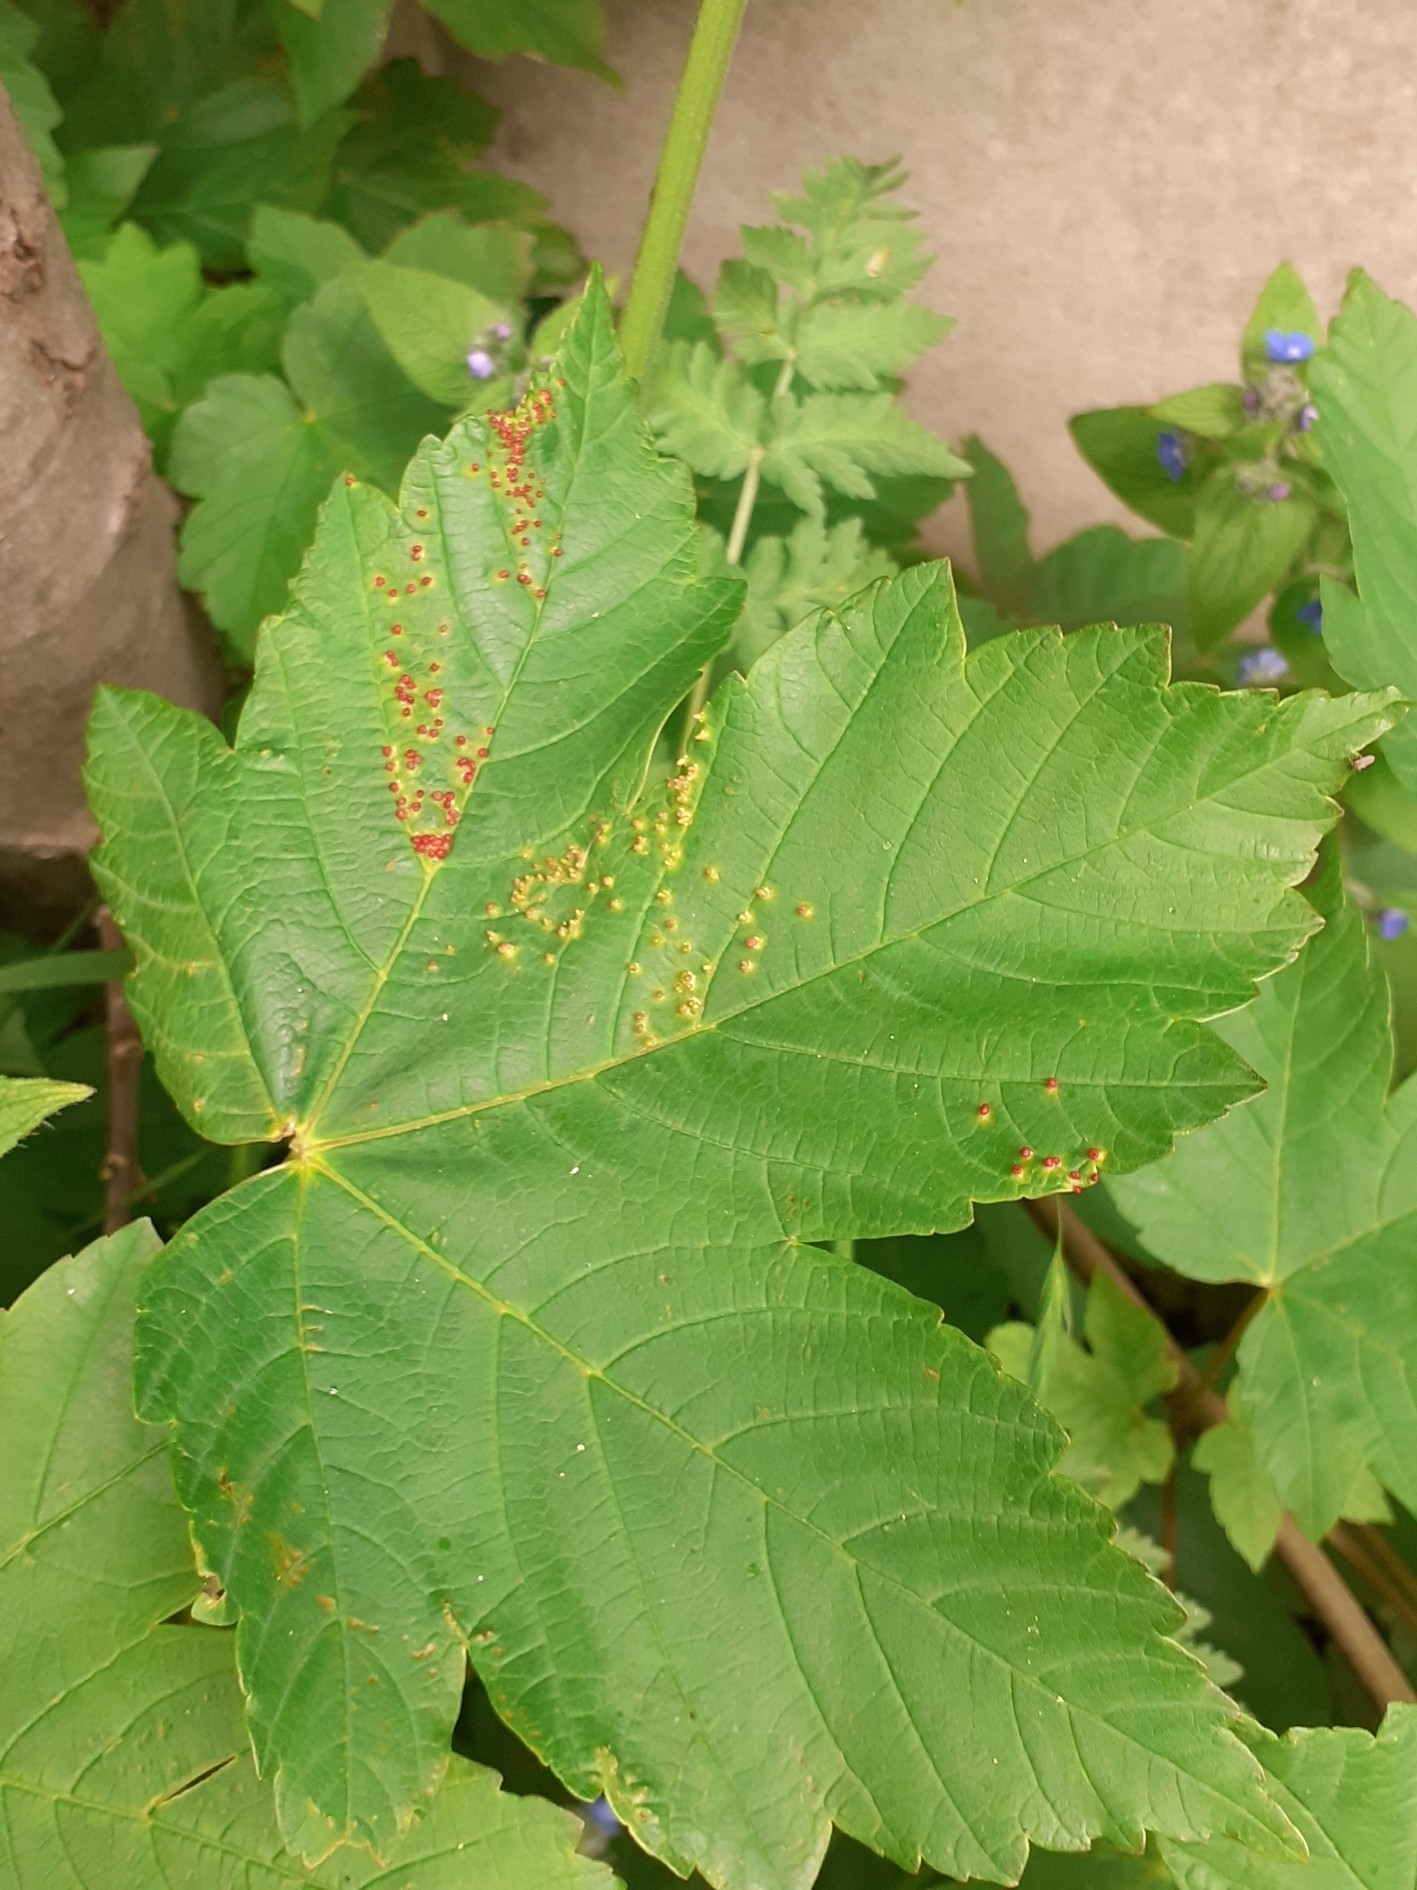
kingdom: Animalia
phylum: Arthropoda
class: Arachnida
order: Trombidiformes
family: Eriophyidae
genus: Aceria
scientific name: Aceria cephaloneus
